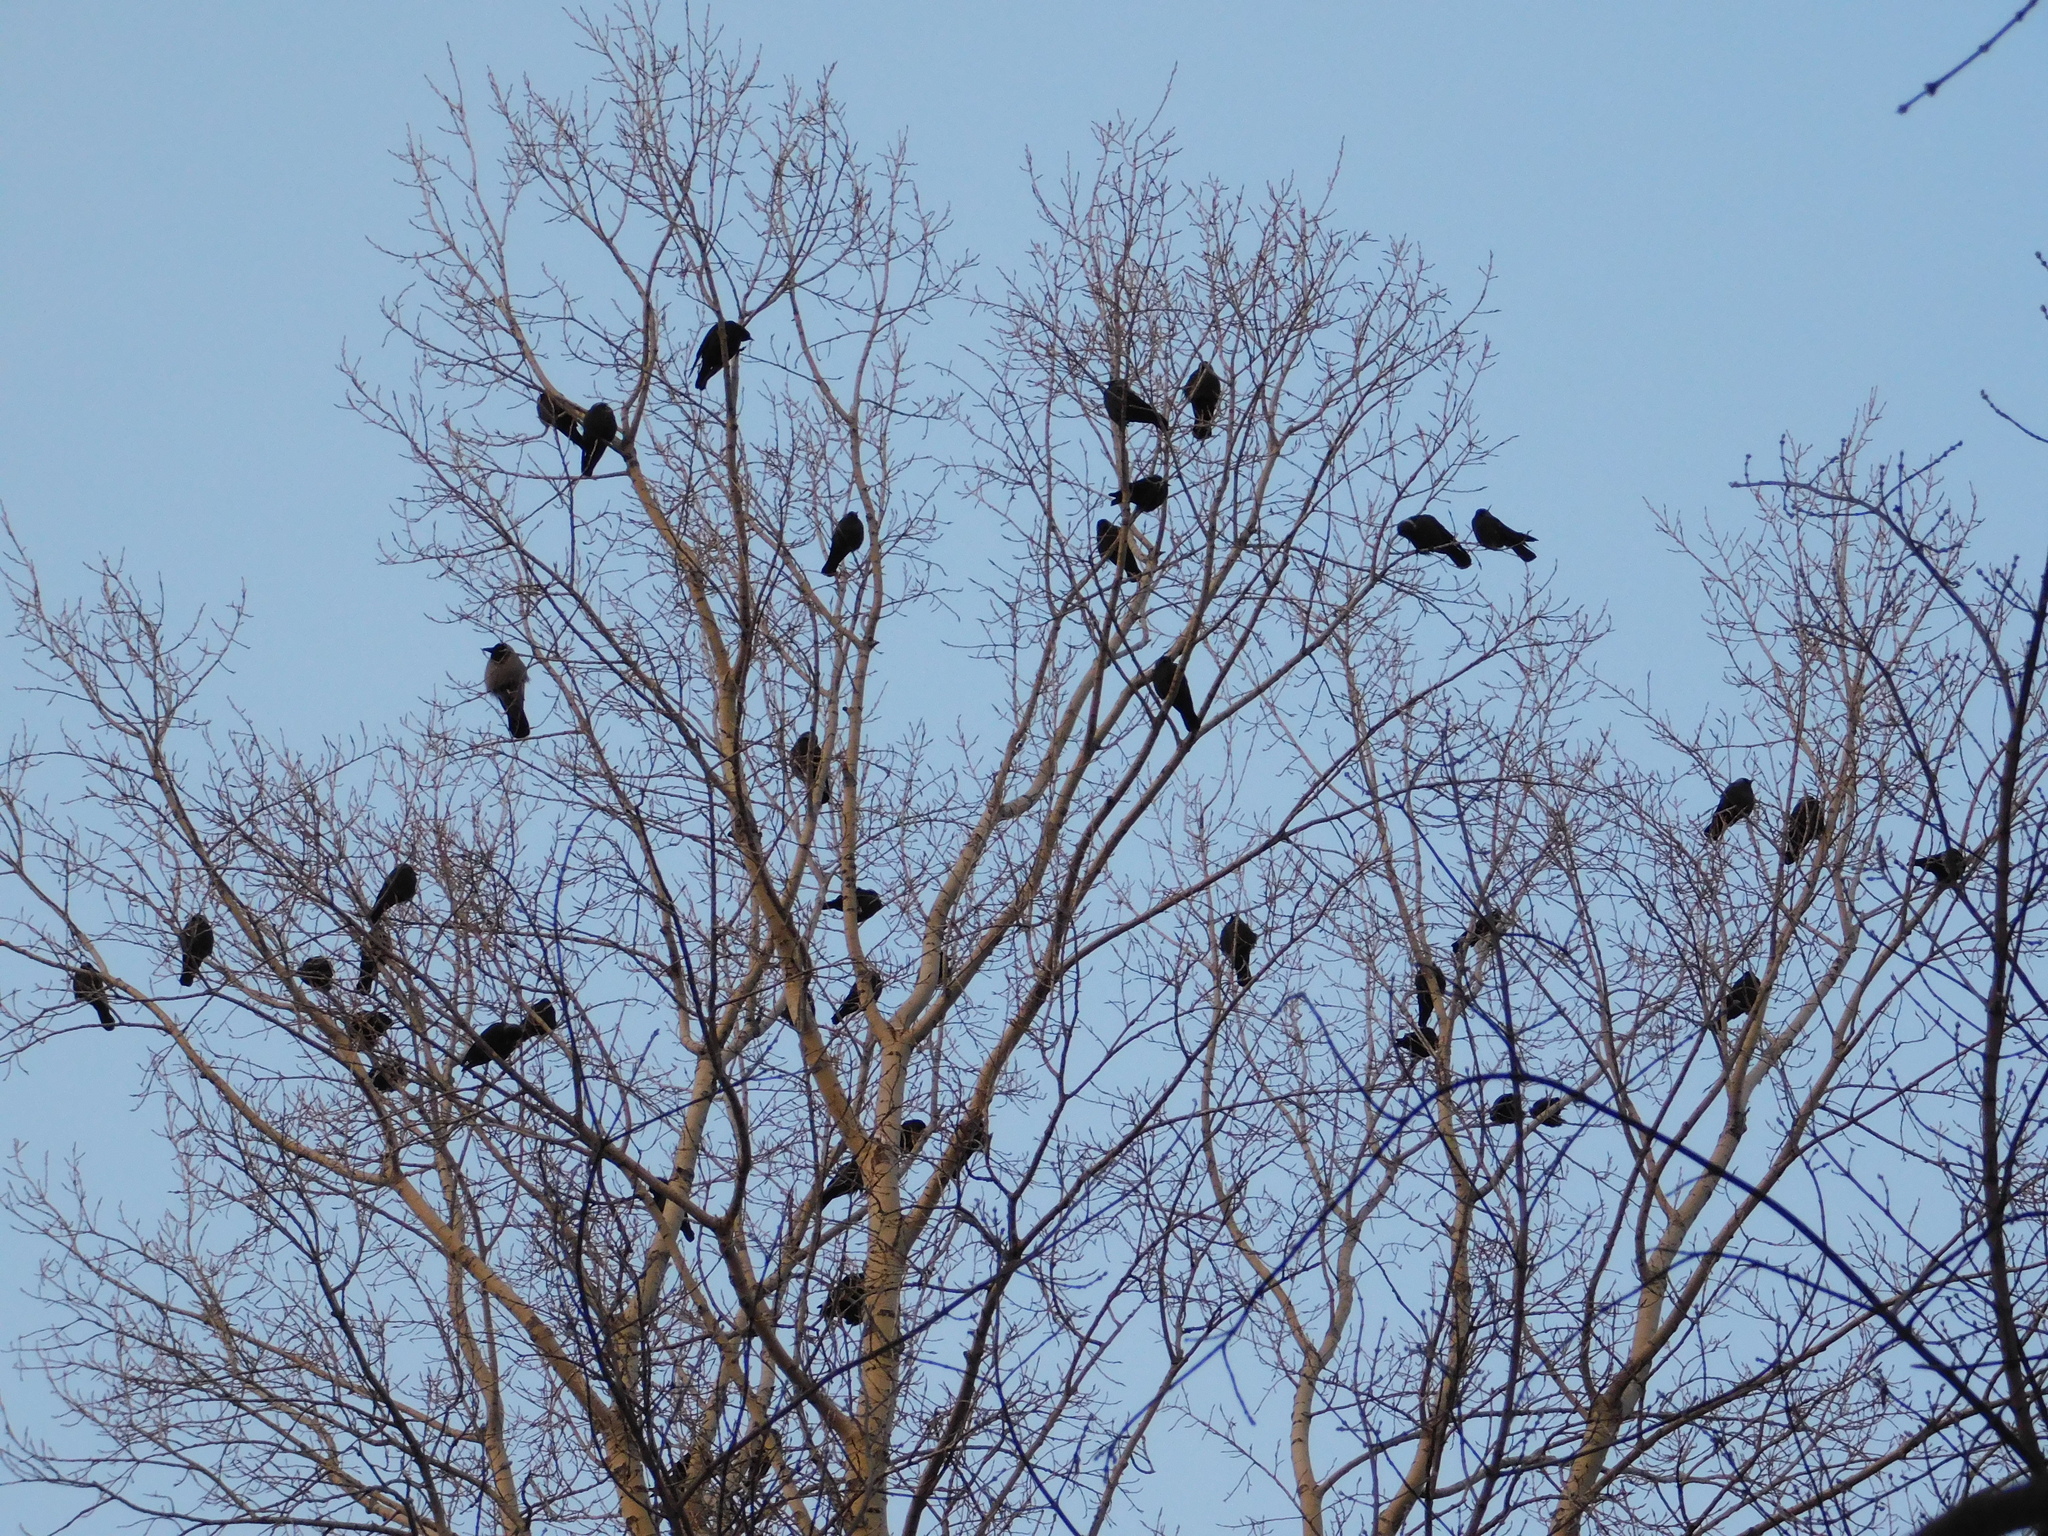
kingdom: Animalia
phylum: Chordata
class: Aves
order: Passeriformes
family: Corvidae
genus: Coloeus
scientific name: Coloeus monedula
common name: Western jackdaw
